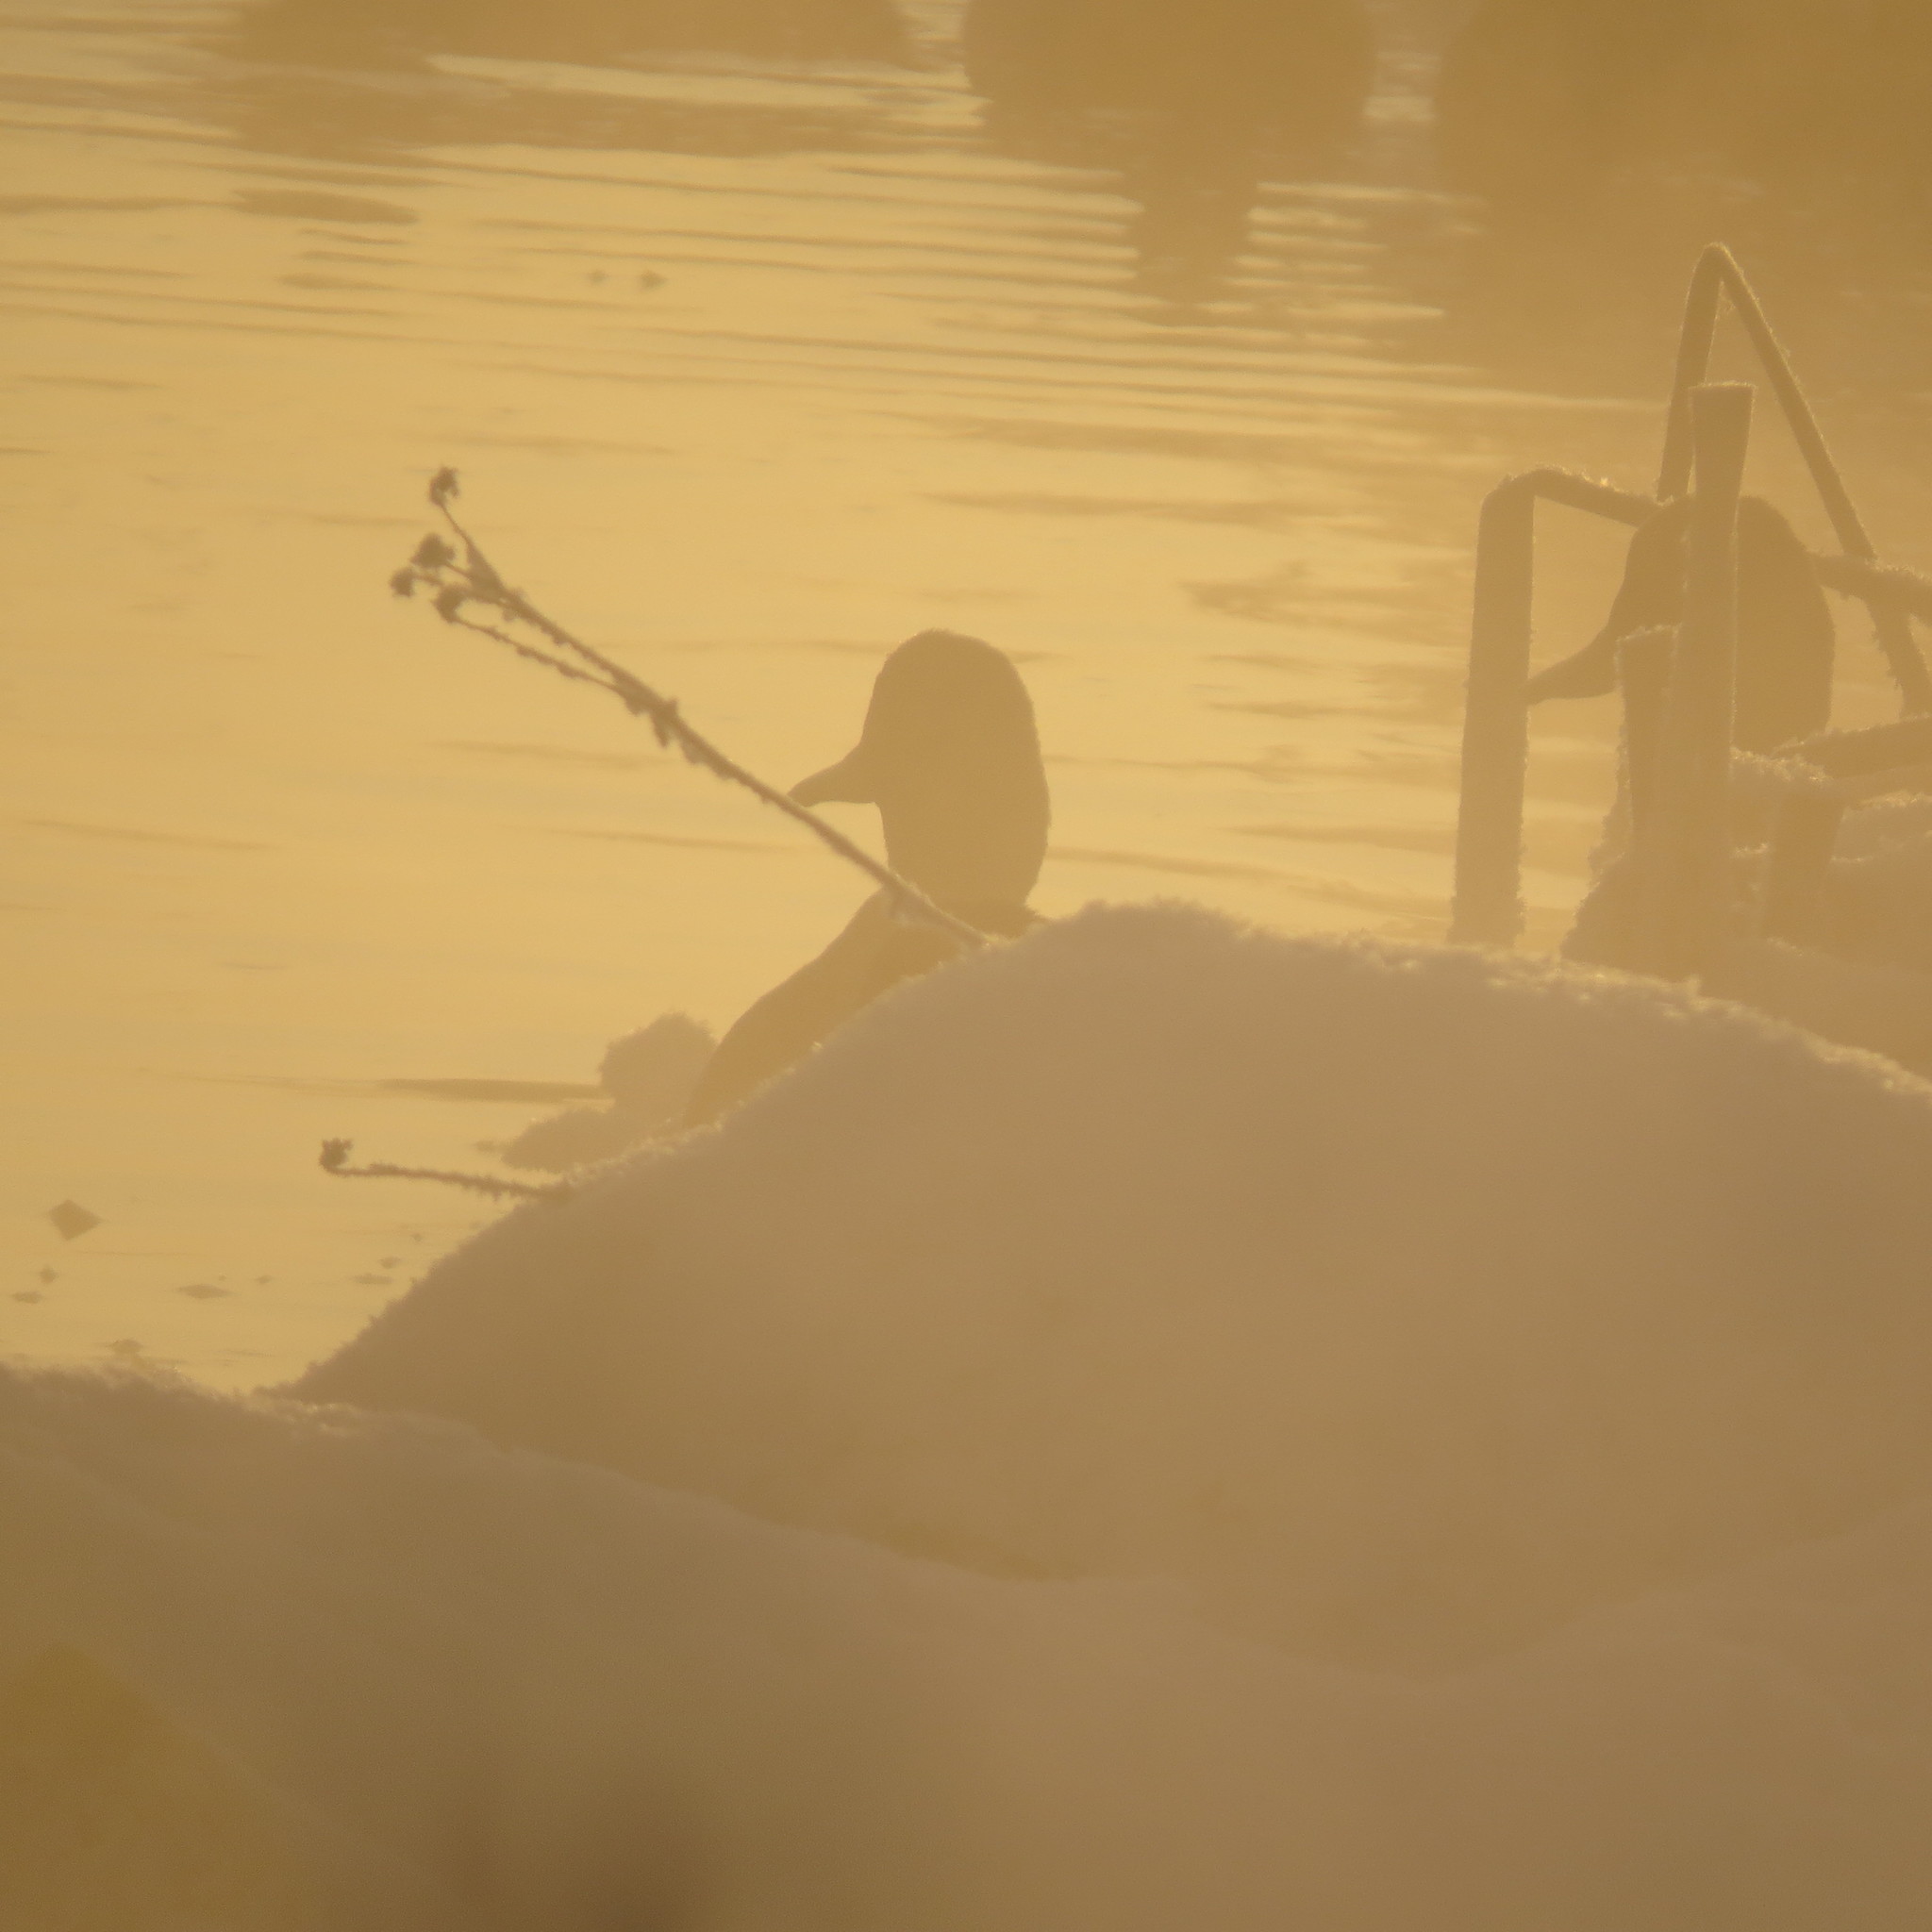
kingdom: Animalia
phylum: Chordata
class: Aves
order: Anseriformes
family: Anatidae
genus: Anas
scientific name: Anas platyrhynchos
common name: Mallard
